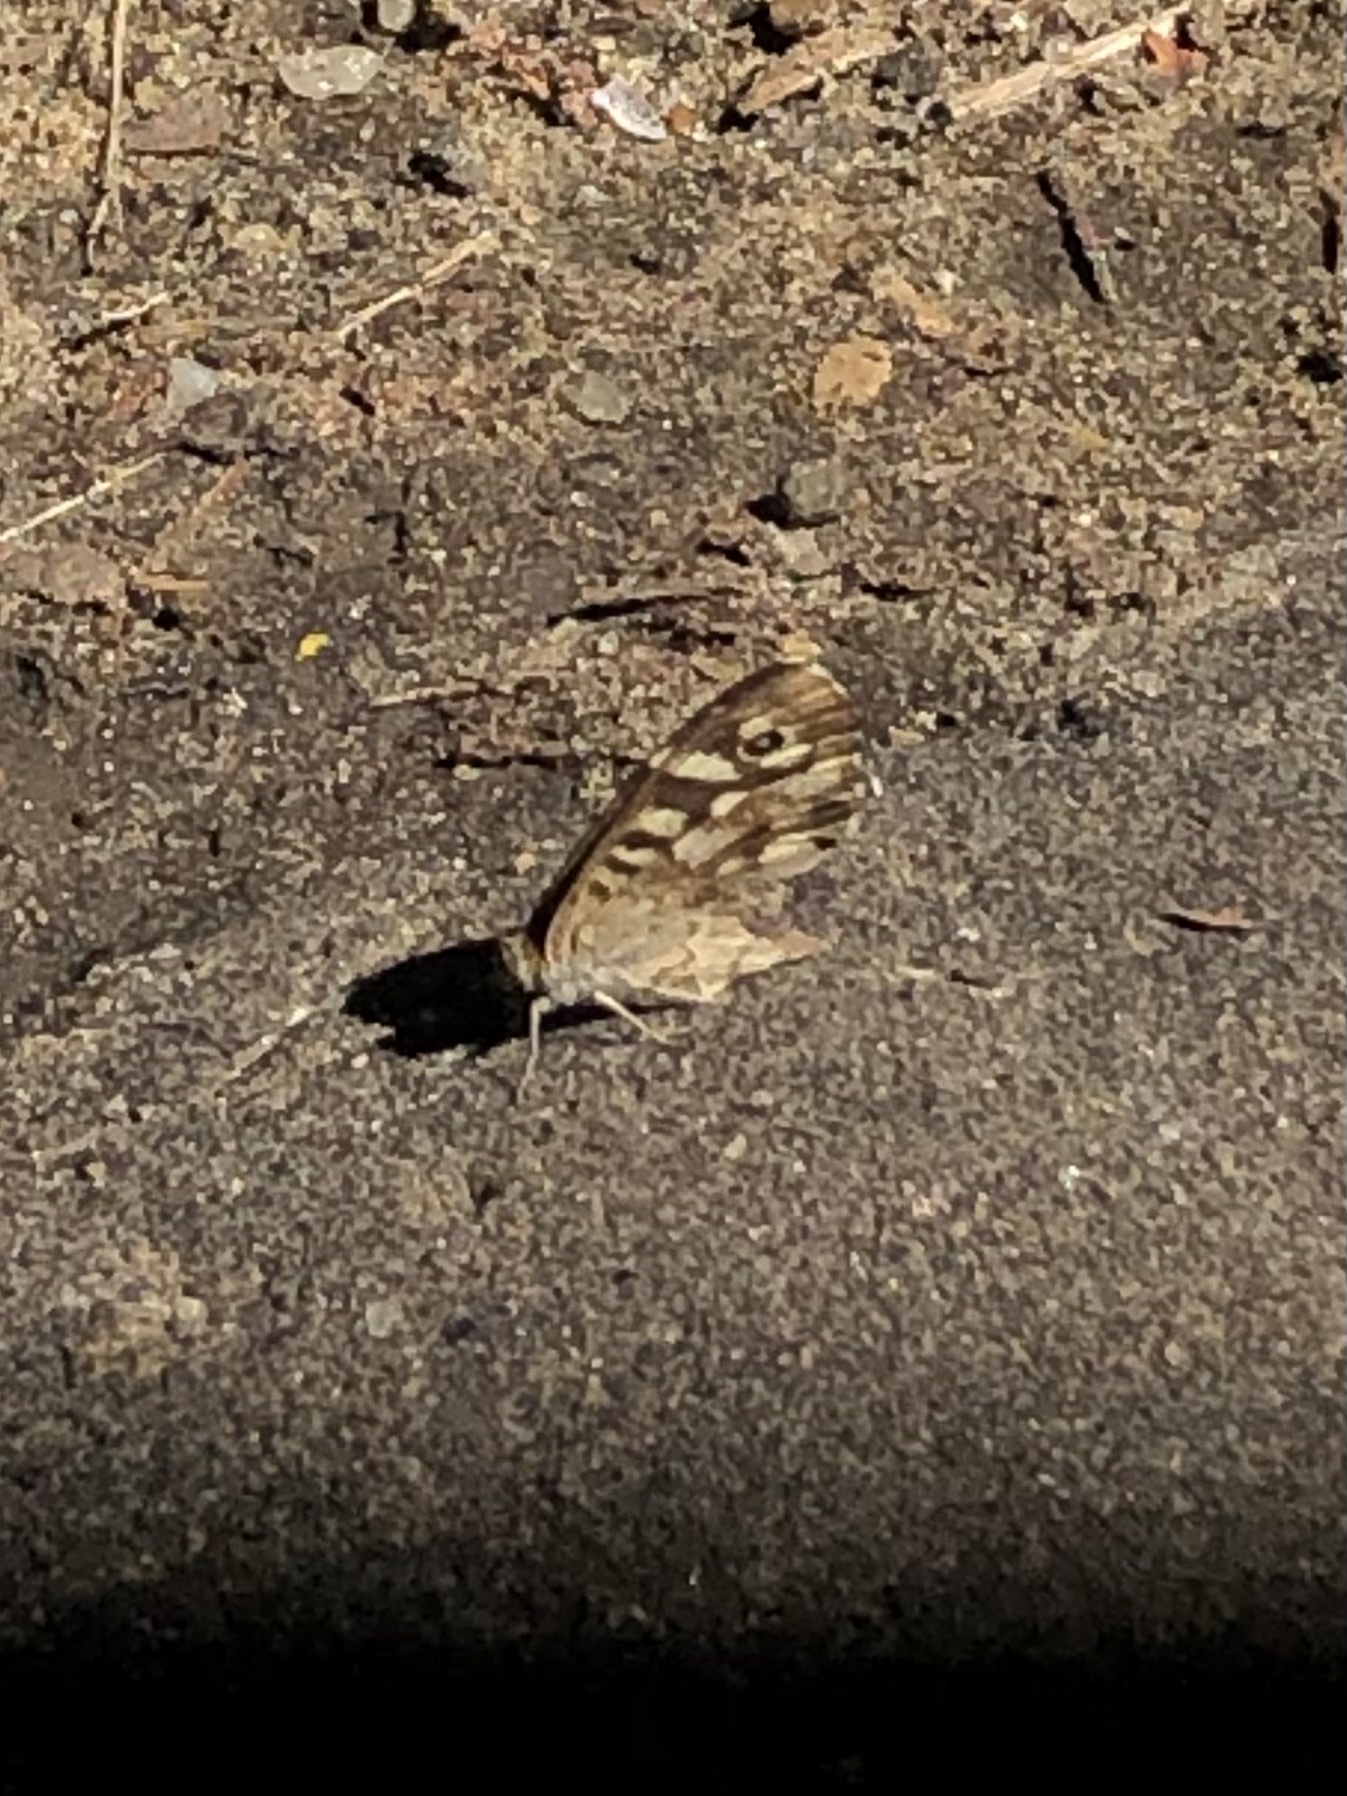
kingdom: Animalia
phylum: Arthropoda
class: Insecta
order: Lepidoptera
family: Nymphalidae
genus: Pararge
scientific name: Pararge aegeria
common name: Speckled wood
